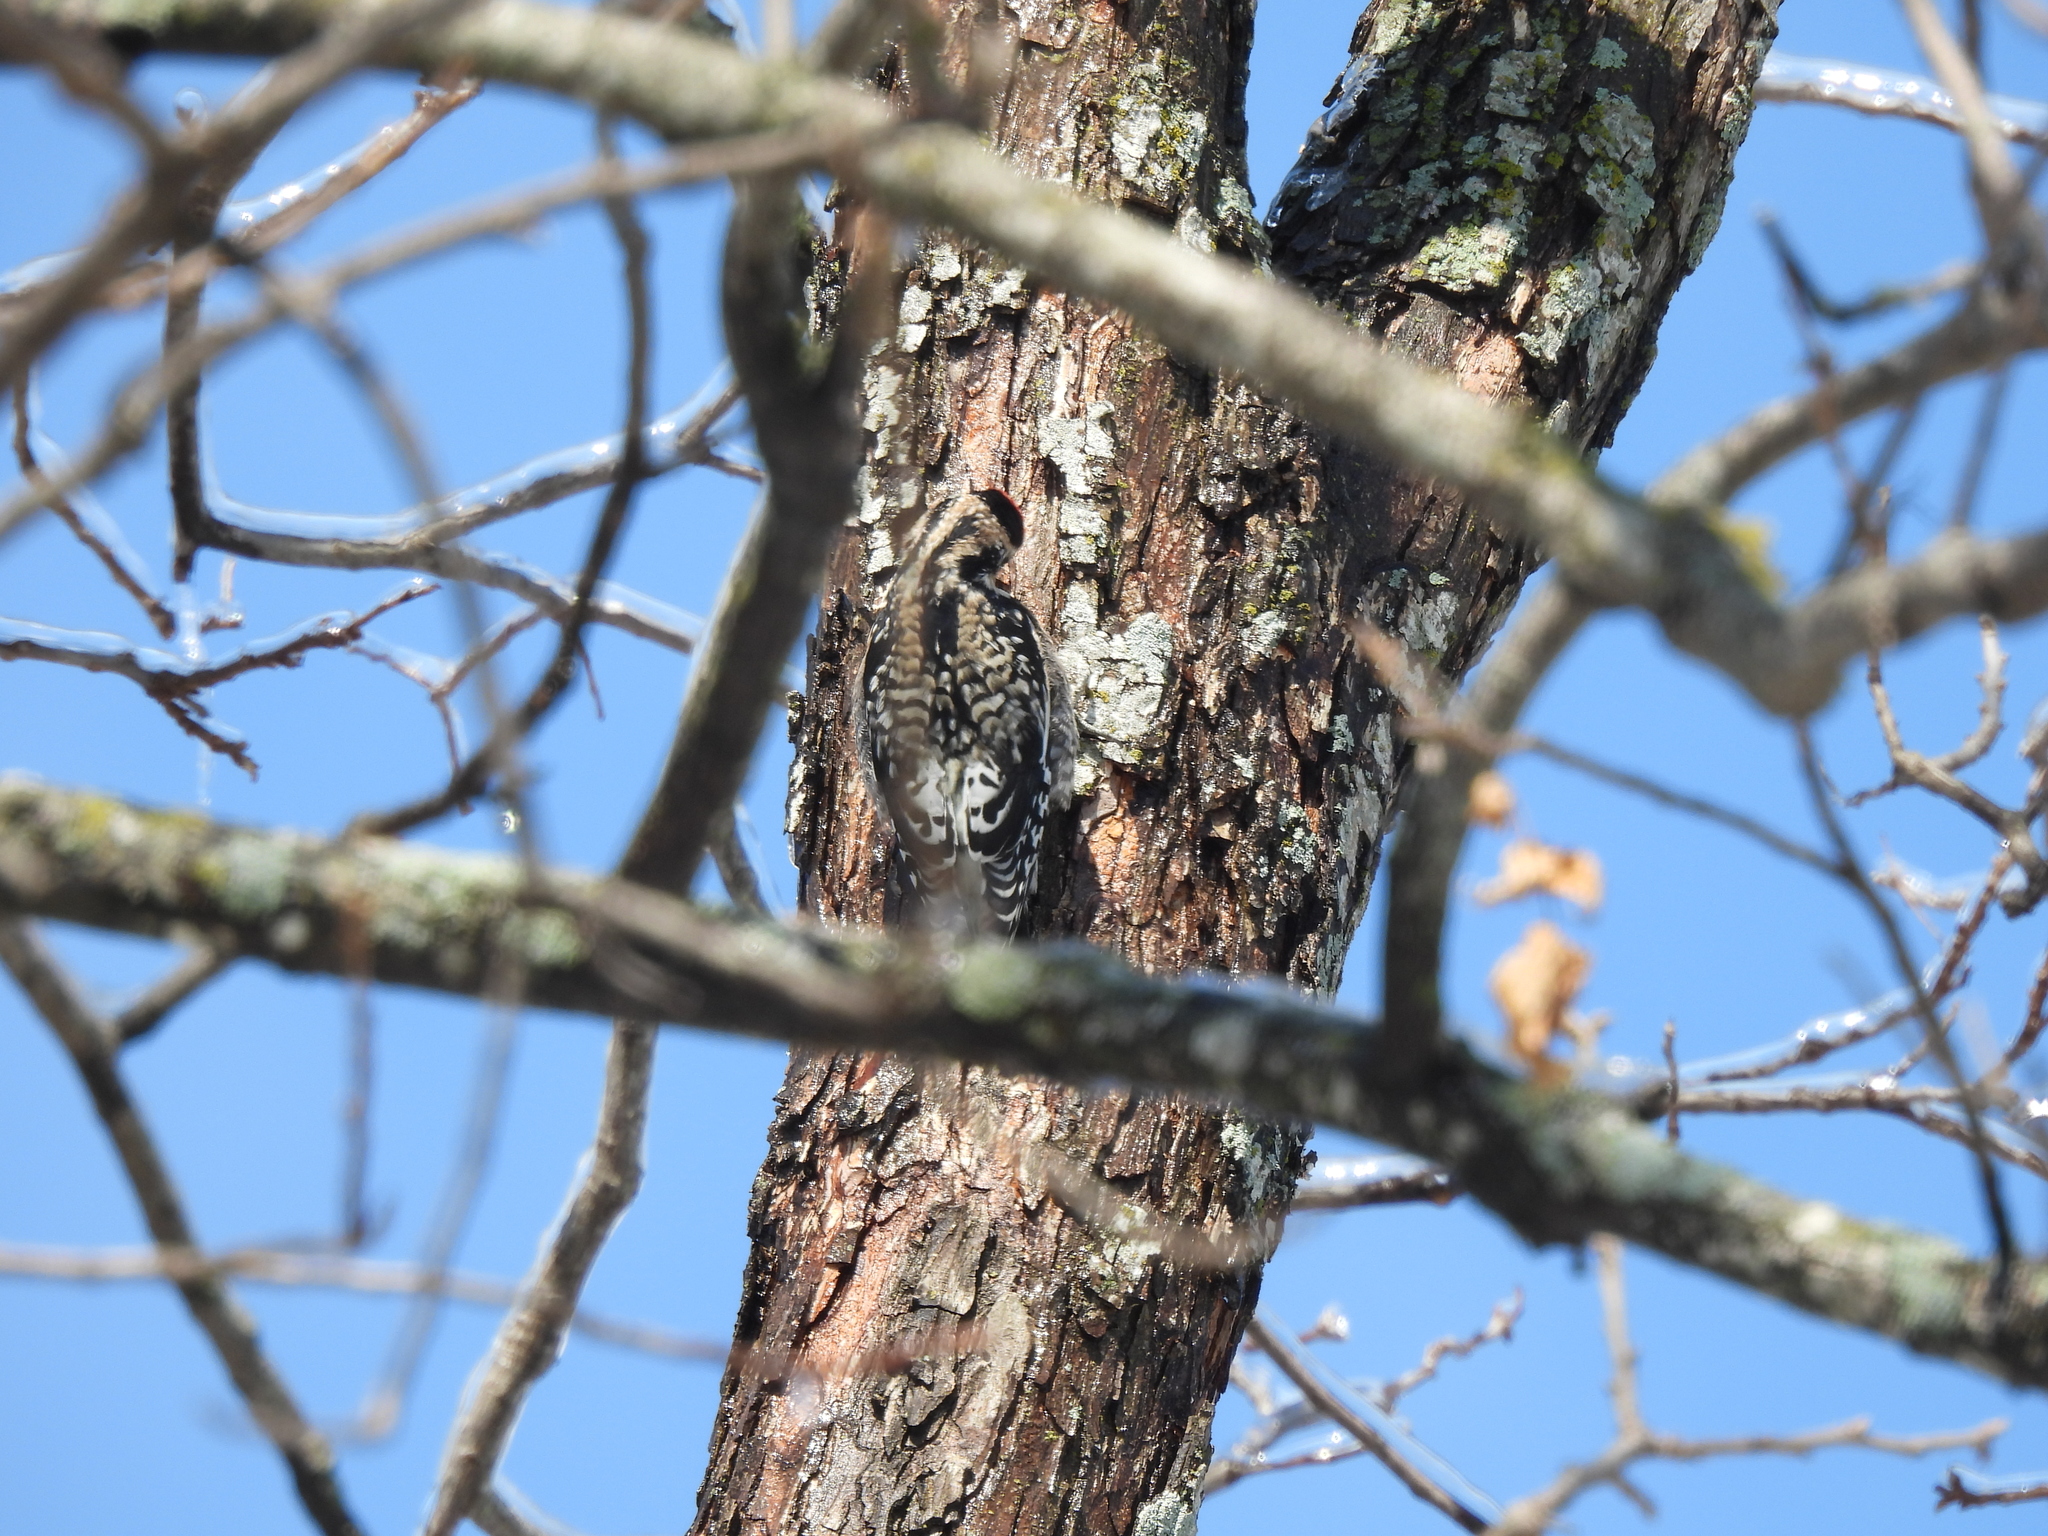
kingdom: Animalia
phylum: Chordata
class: Aves
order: Piciformes
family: Picidae
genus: Sphyrapicus
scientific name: Sphyrapicus varius
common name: Yellow-bellied sapsucker
